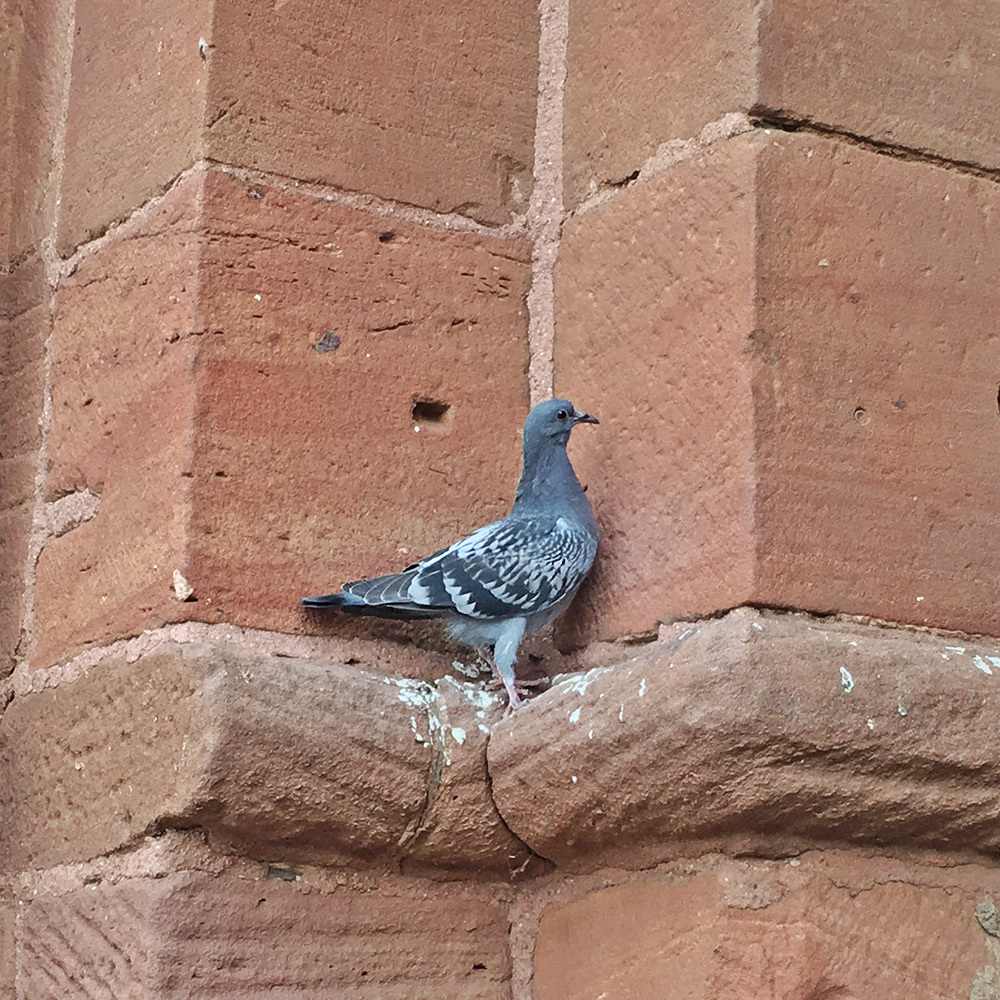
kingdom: Animalia
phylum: Chordata
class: Aves
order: Columbiformes
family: Columbidae
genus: Columba
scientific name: Columba livia
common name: Rock pigeon
